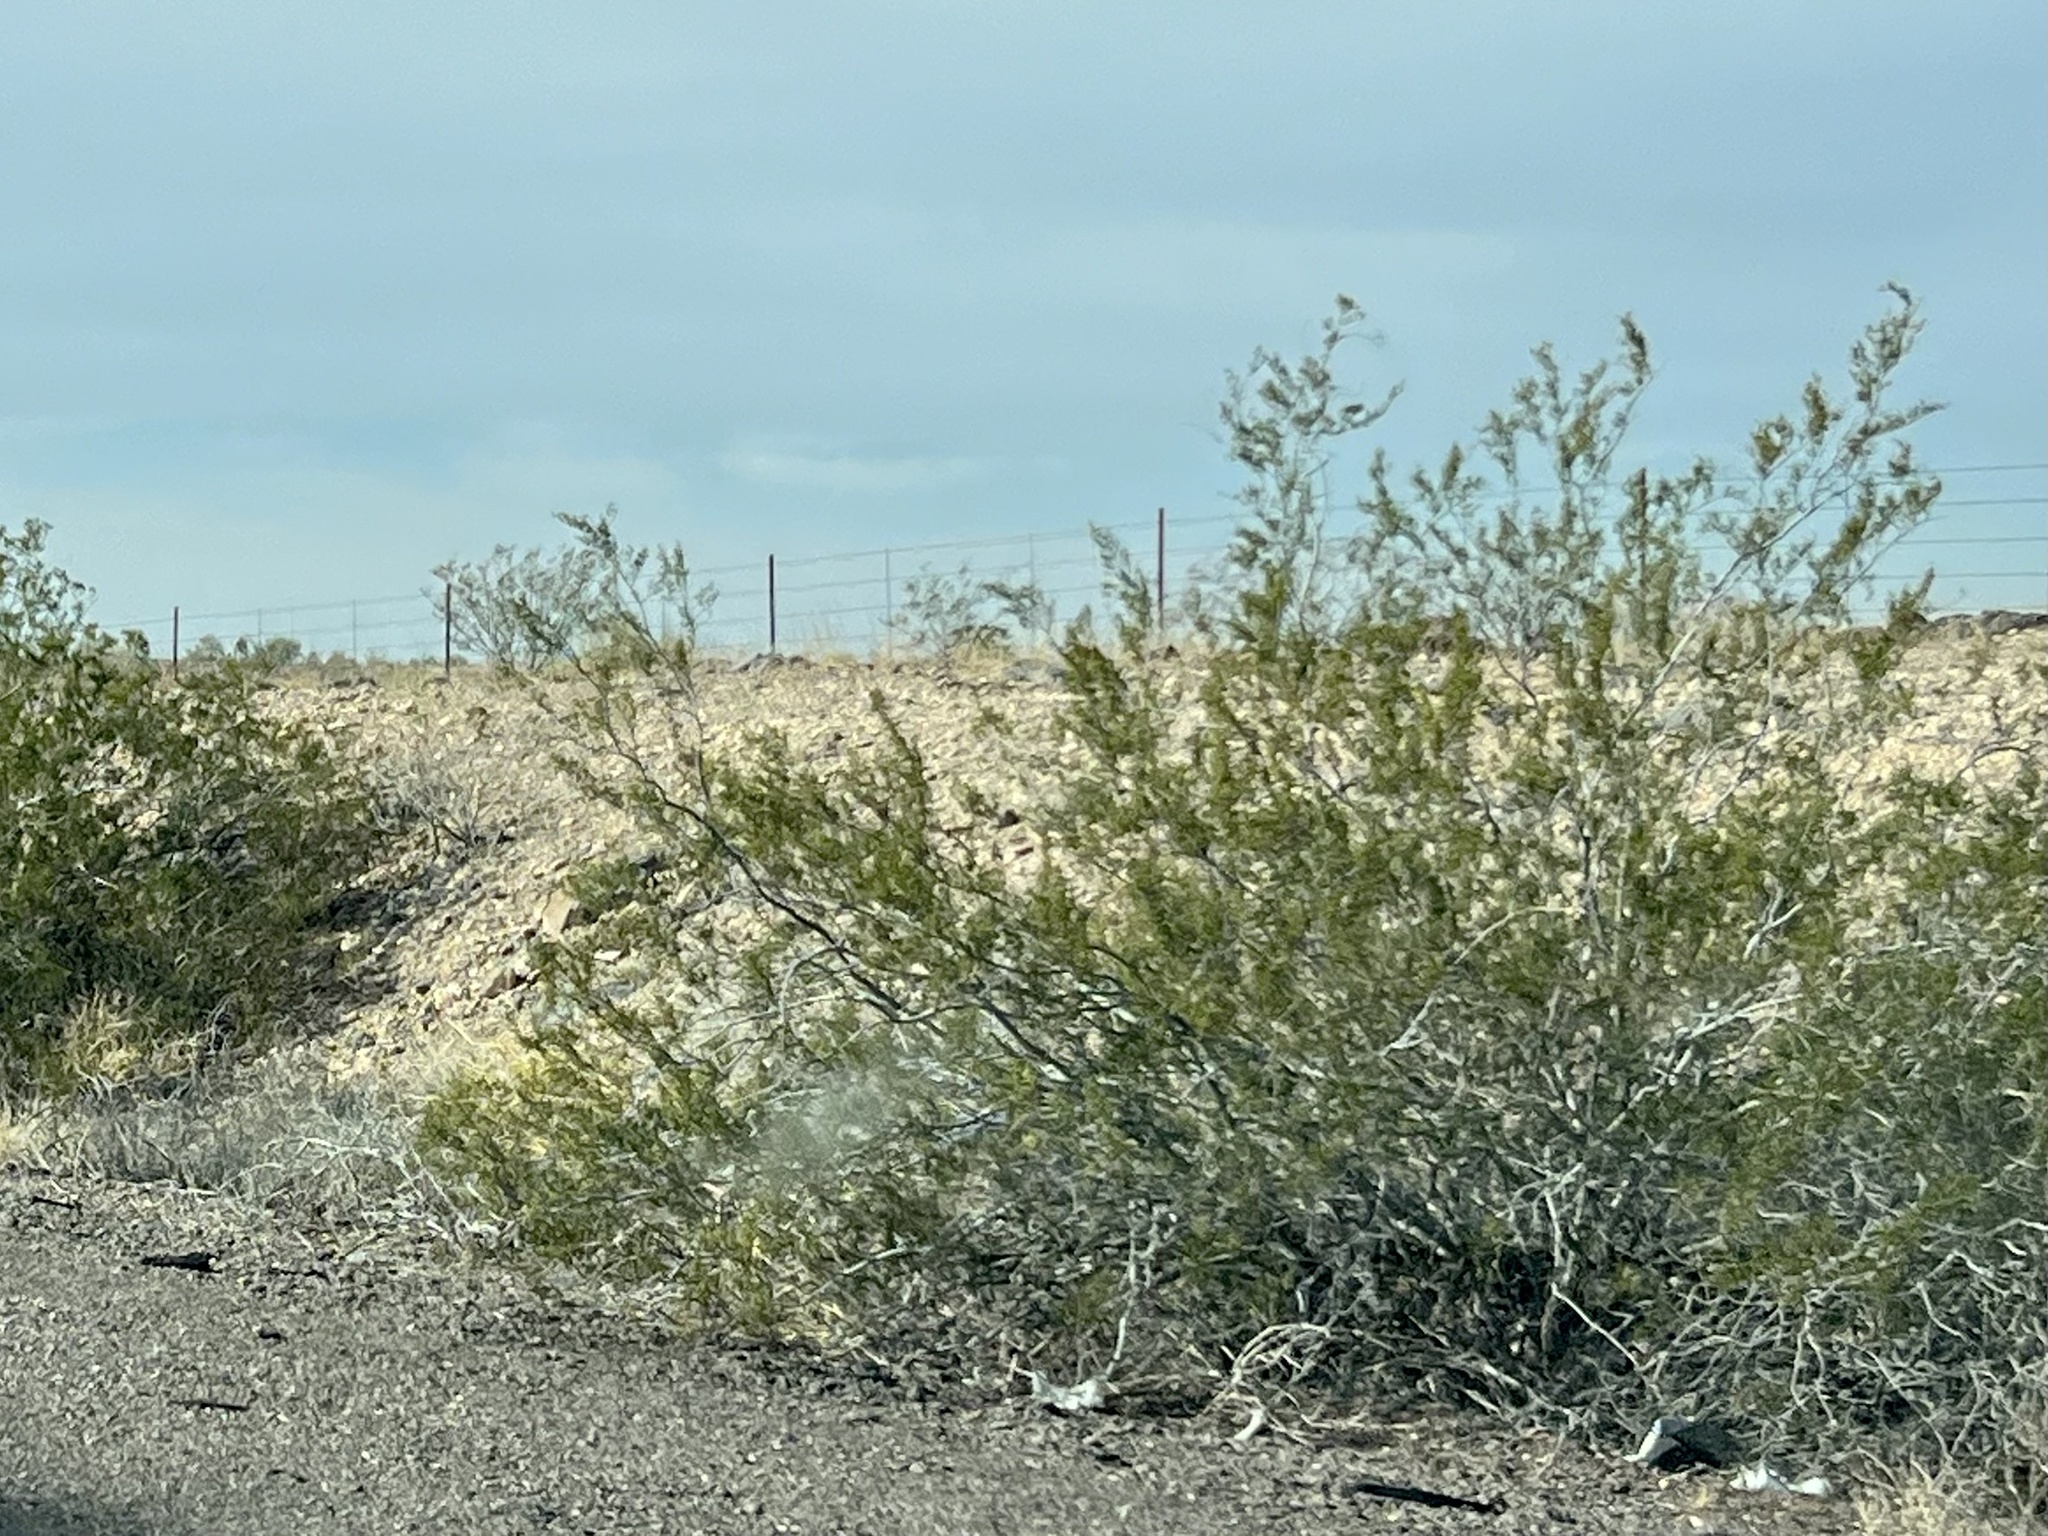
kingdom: Plantae
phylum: Tracheophyta
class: Magnoliopsida
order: Zygophyllales
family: Zygophyllaceae
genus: Larrea
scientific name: Larrea tridentata
